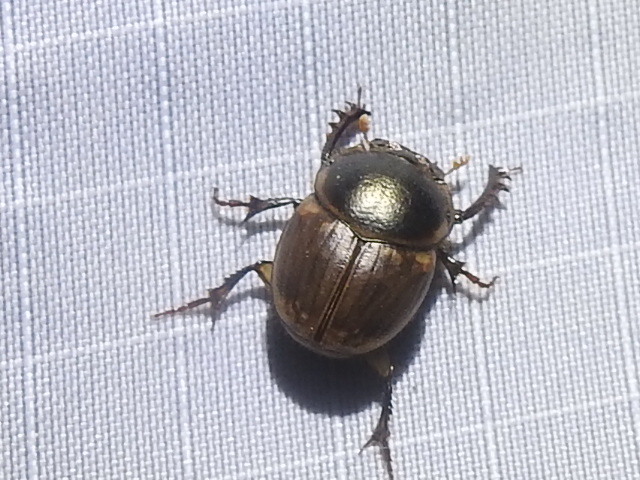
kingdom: Animalia
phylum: Arthropoda
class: Insecta
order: Coleoptera
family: Scarabaeidae
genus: Digitonthophagus
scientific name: Digitonthophagus gazella
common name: Brown dung beetle
